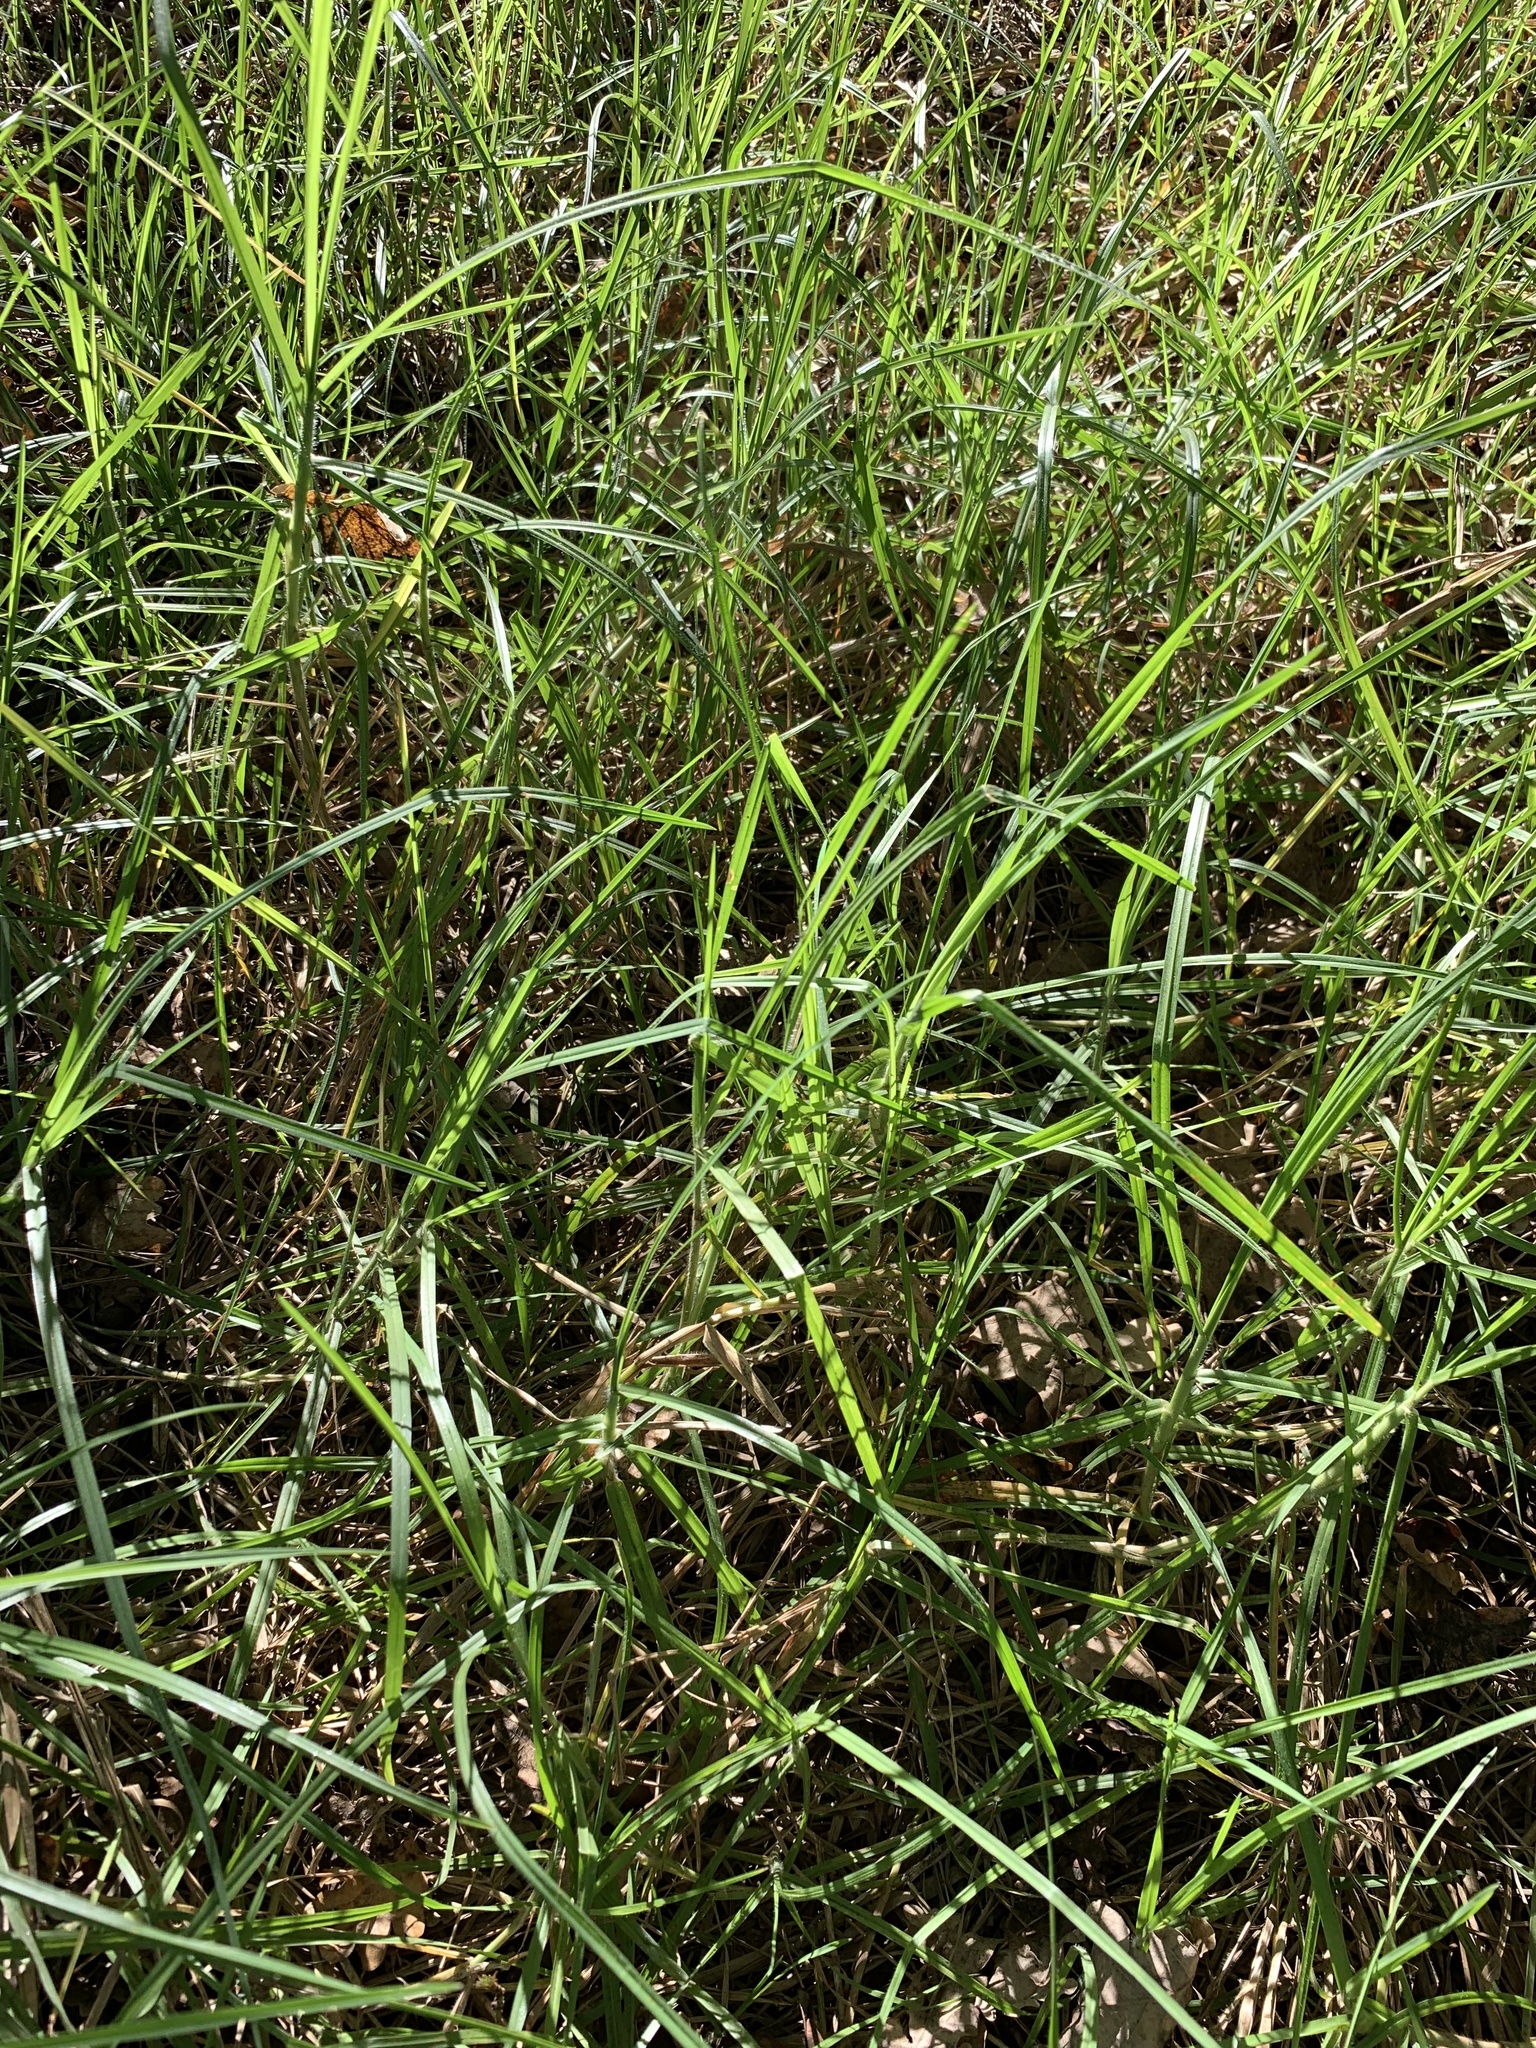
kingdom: Plantae
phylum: Tracheophyta
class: Liliopsida
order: Poales
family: Poaceae
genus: Cenchrus
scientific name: Cenchrus clandestinus
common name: Kikuyugrass
